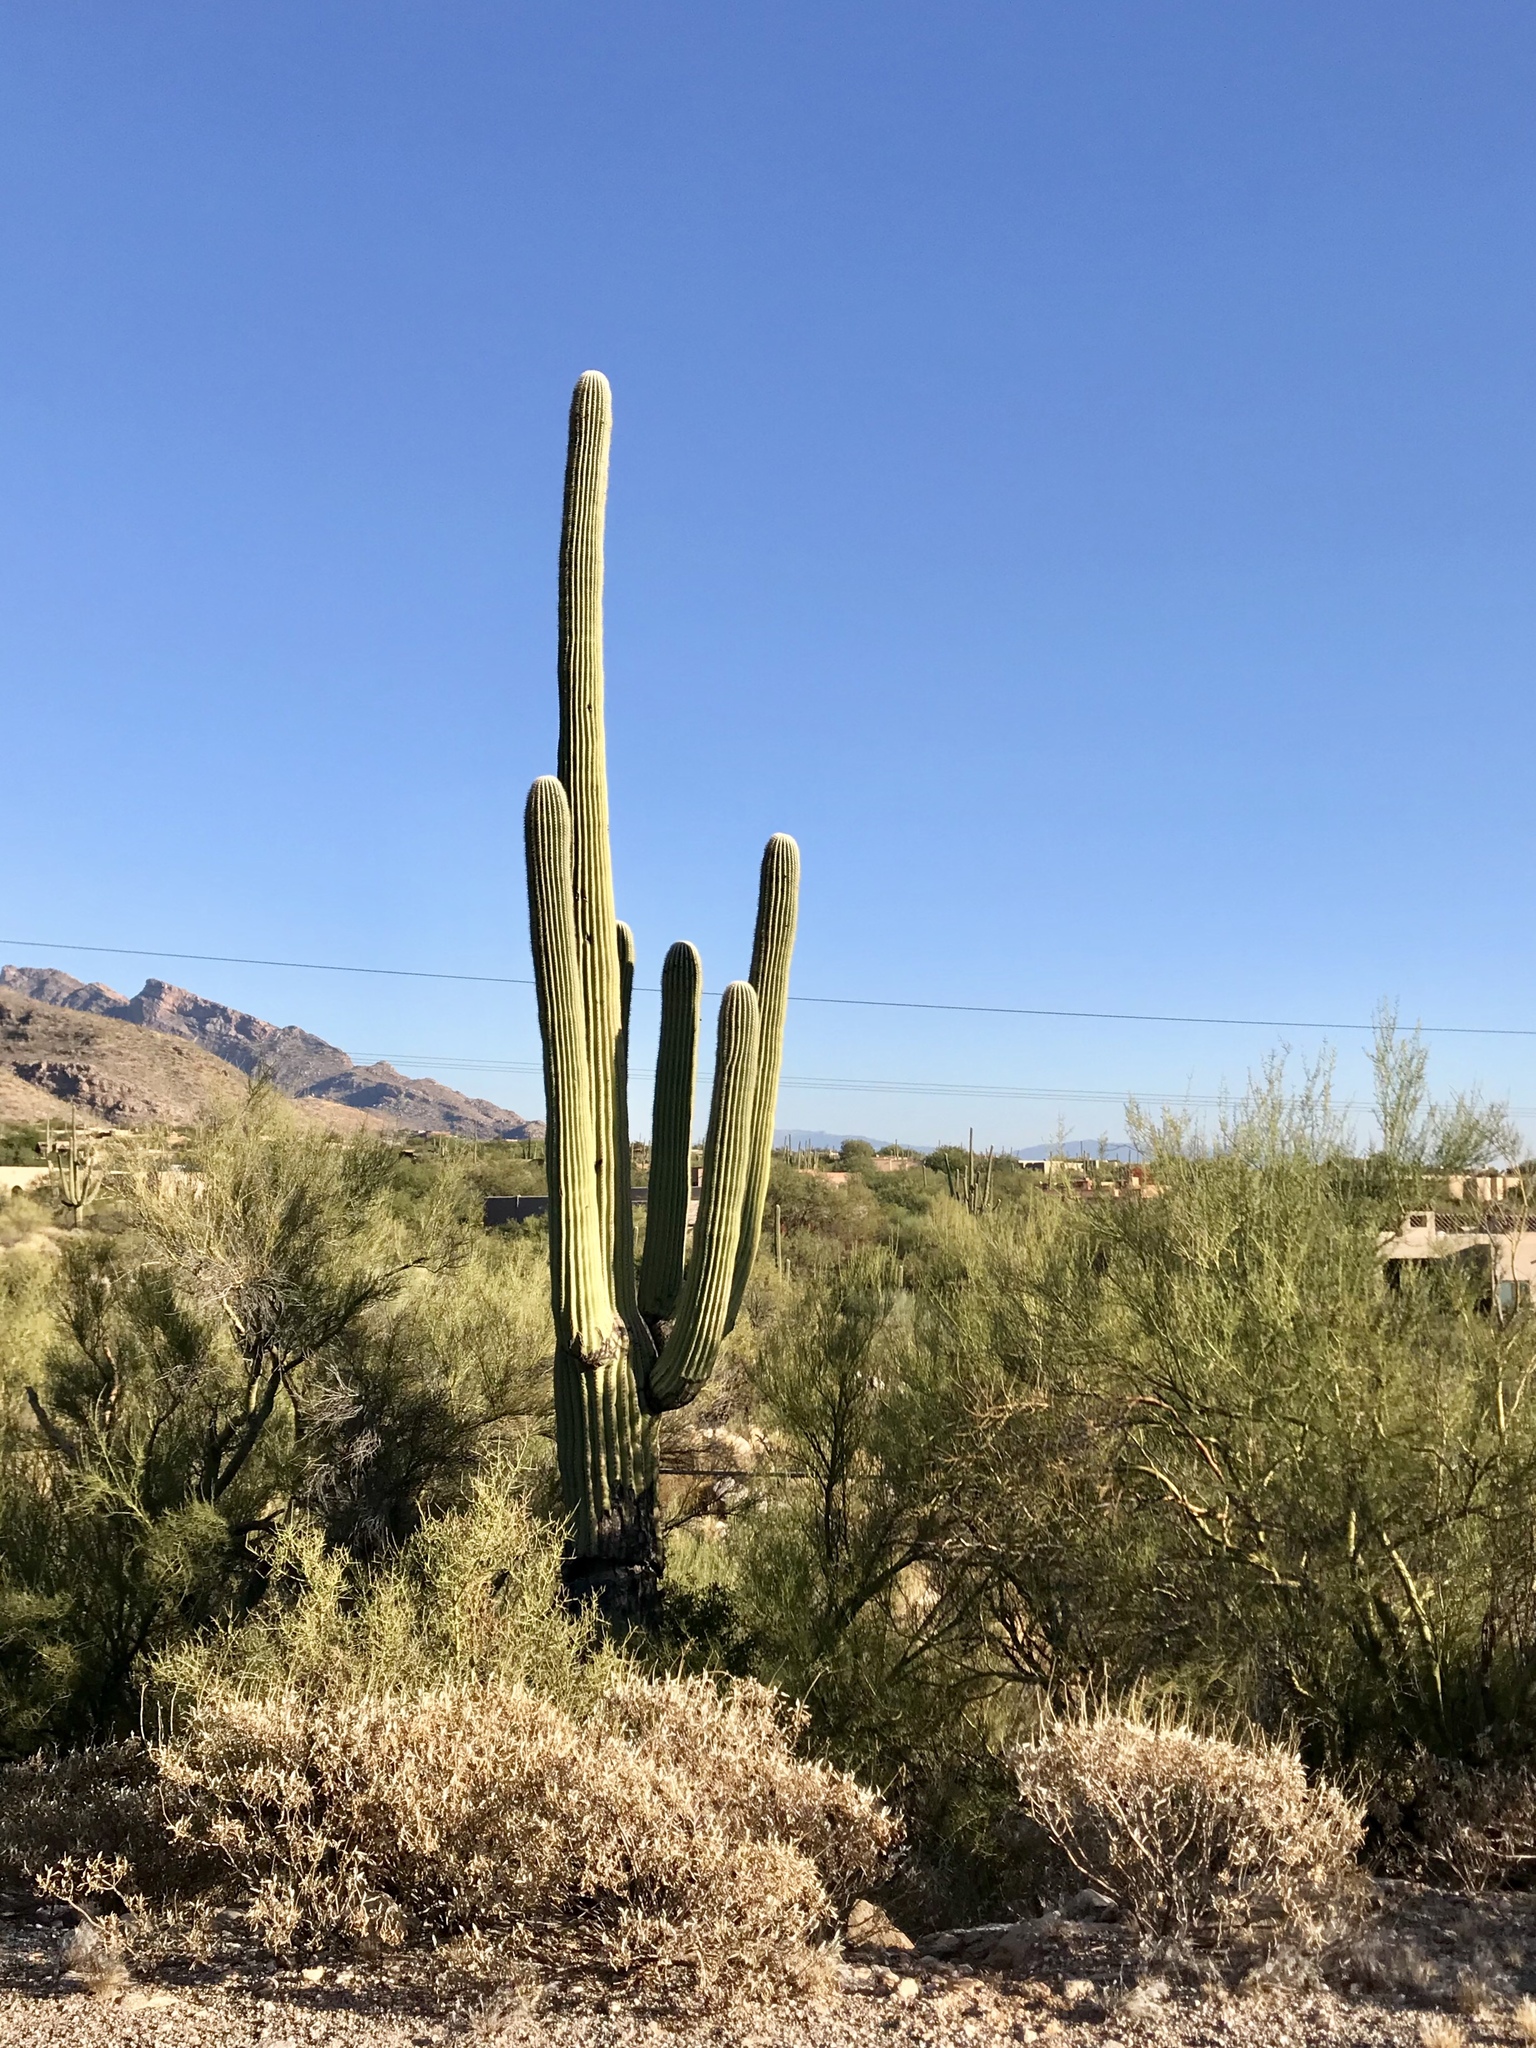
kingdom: Plantae
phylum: Tracheophyta
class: Magnoliopsida
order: Caryophyllales
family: Cactaceae
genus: Carnegiea
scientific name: Carnegiea gigantea
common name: Saguaro
